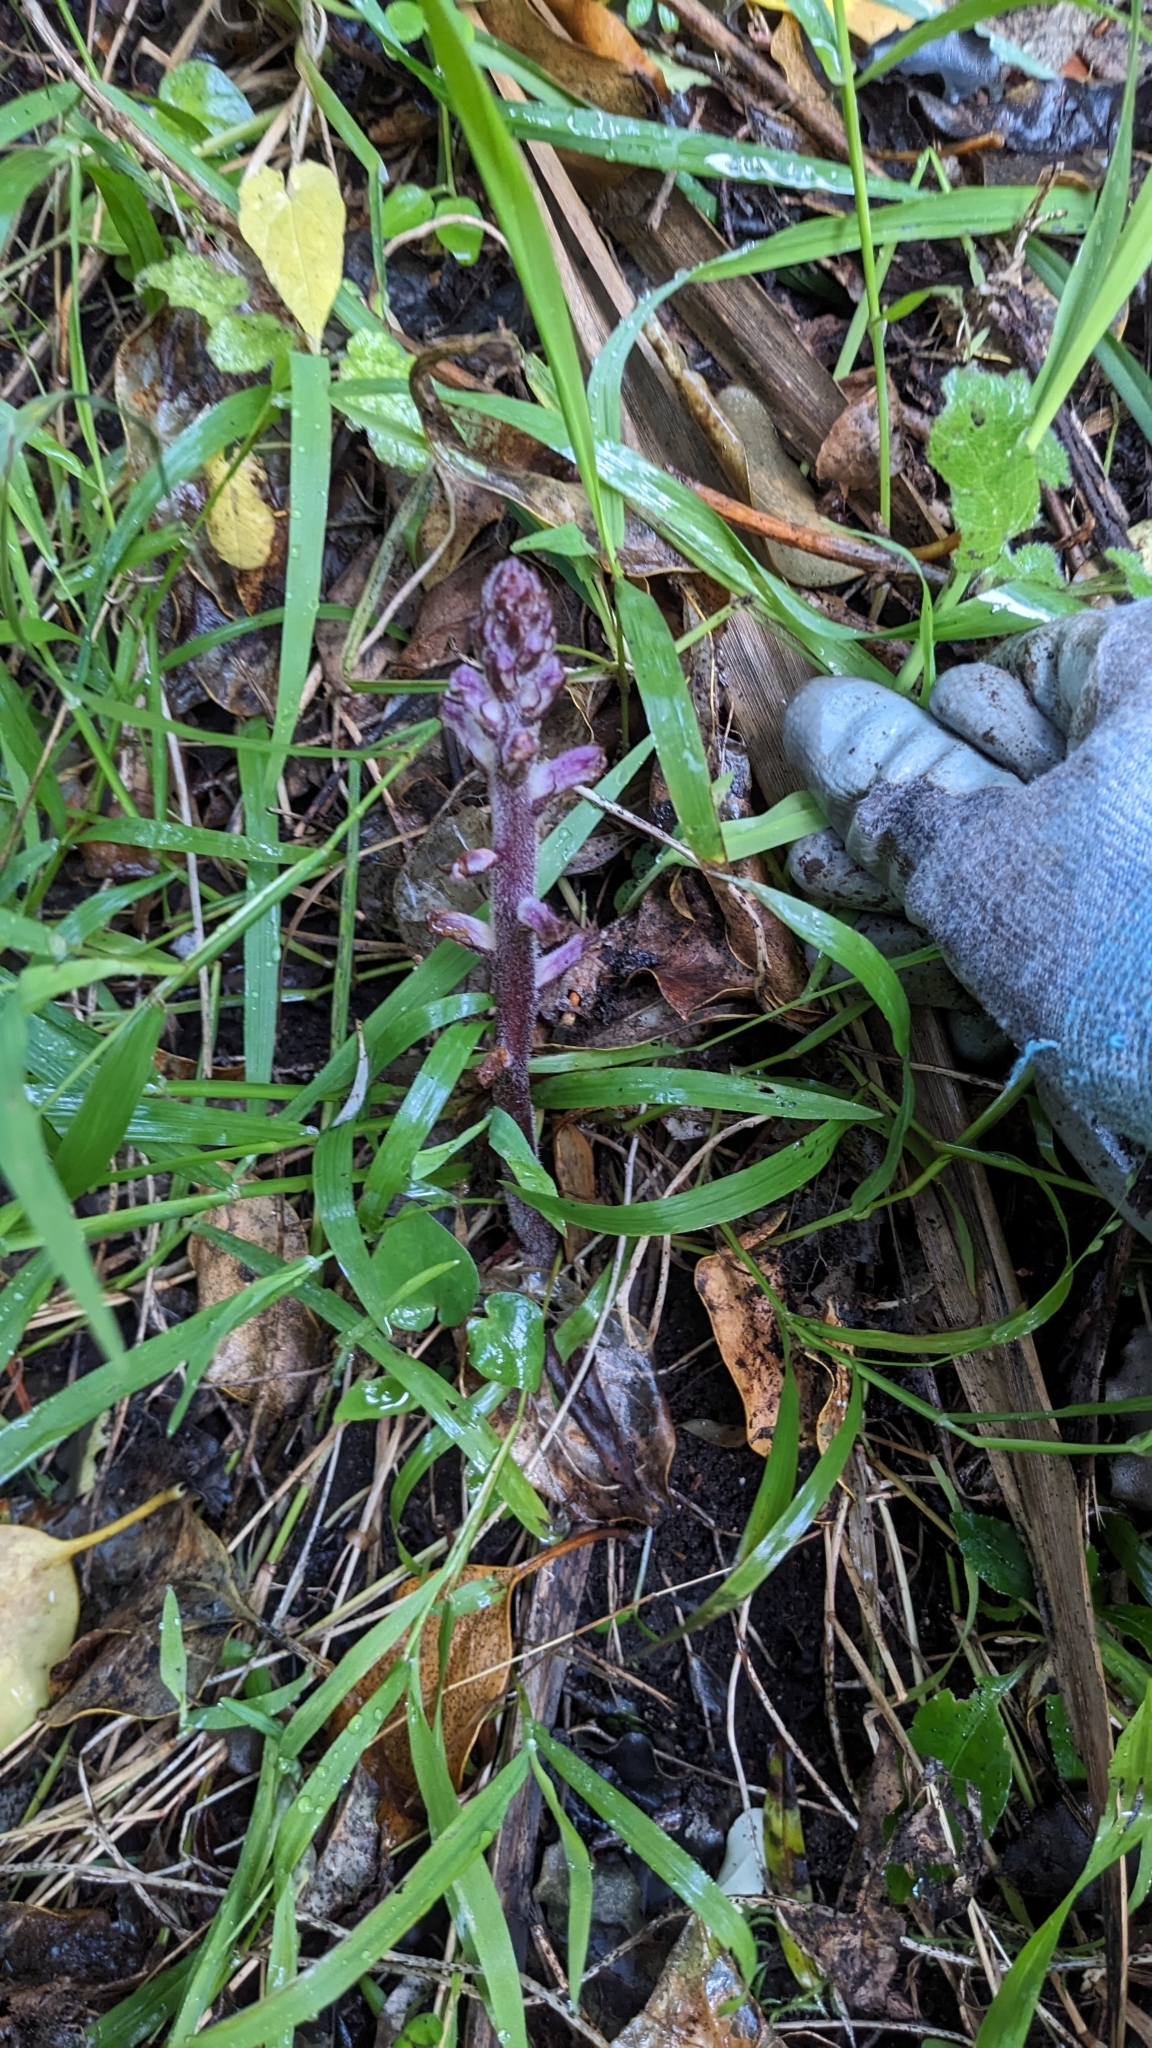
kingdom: Plantae
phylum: Tracheophyta
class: Magnoliopsida
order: Lamiales
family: Orobanchaceae
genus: Orobanche
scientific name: Orobanche minor
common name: Common broomrape
